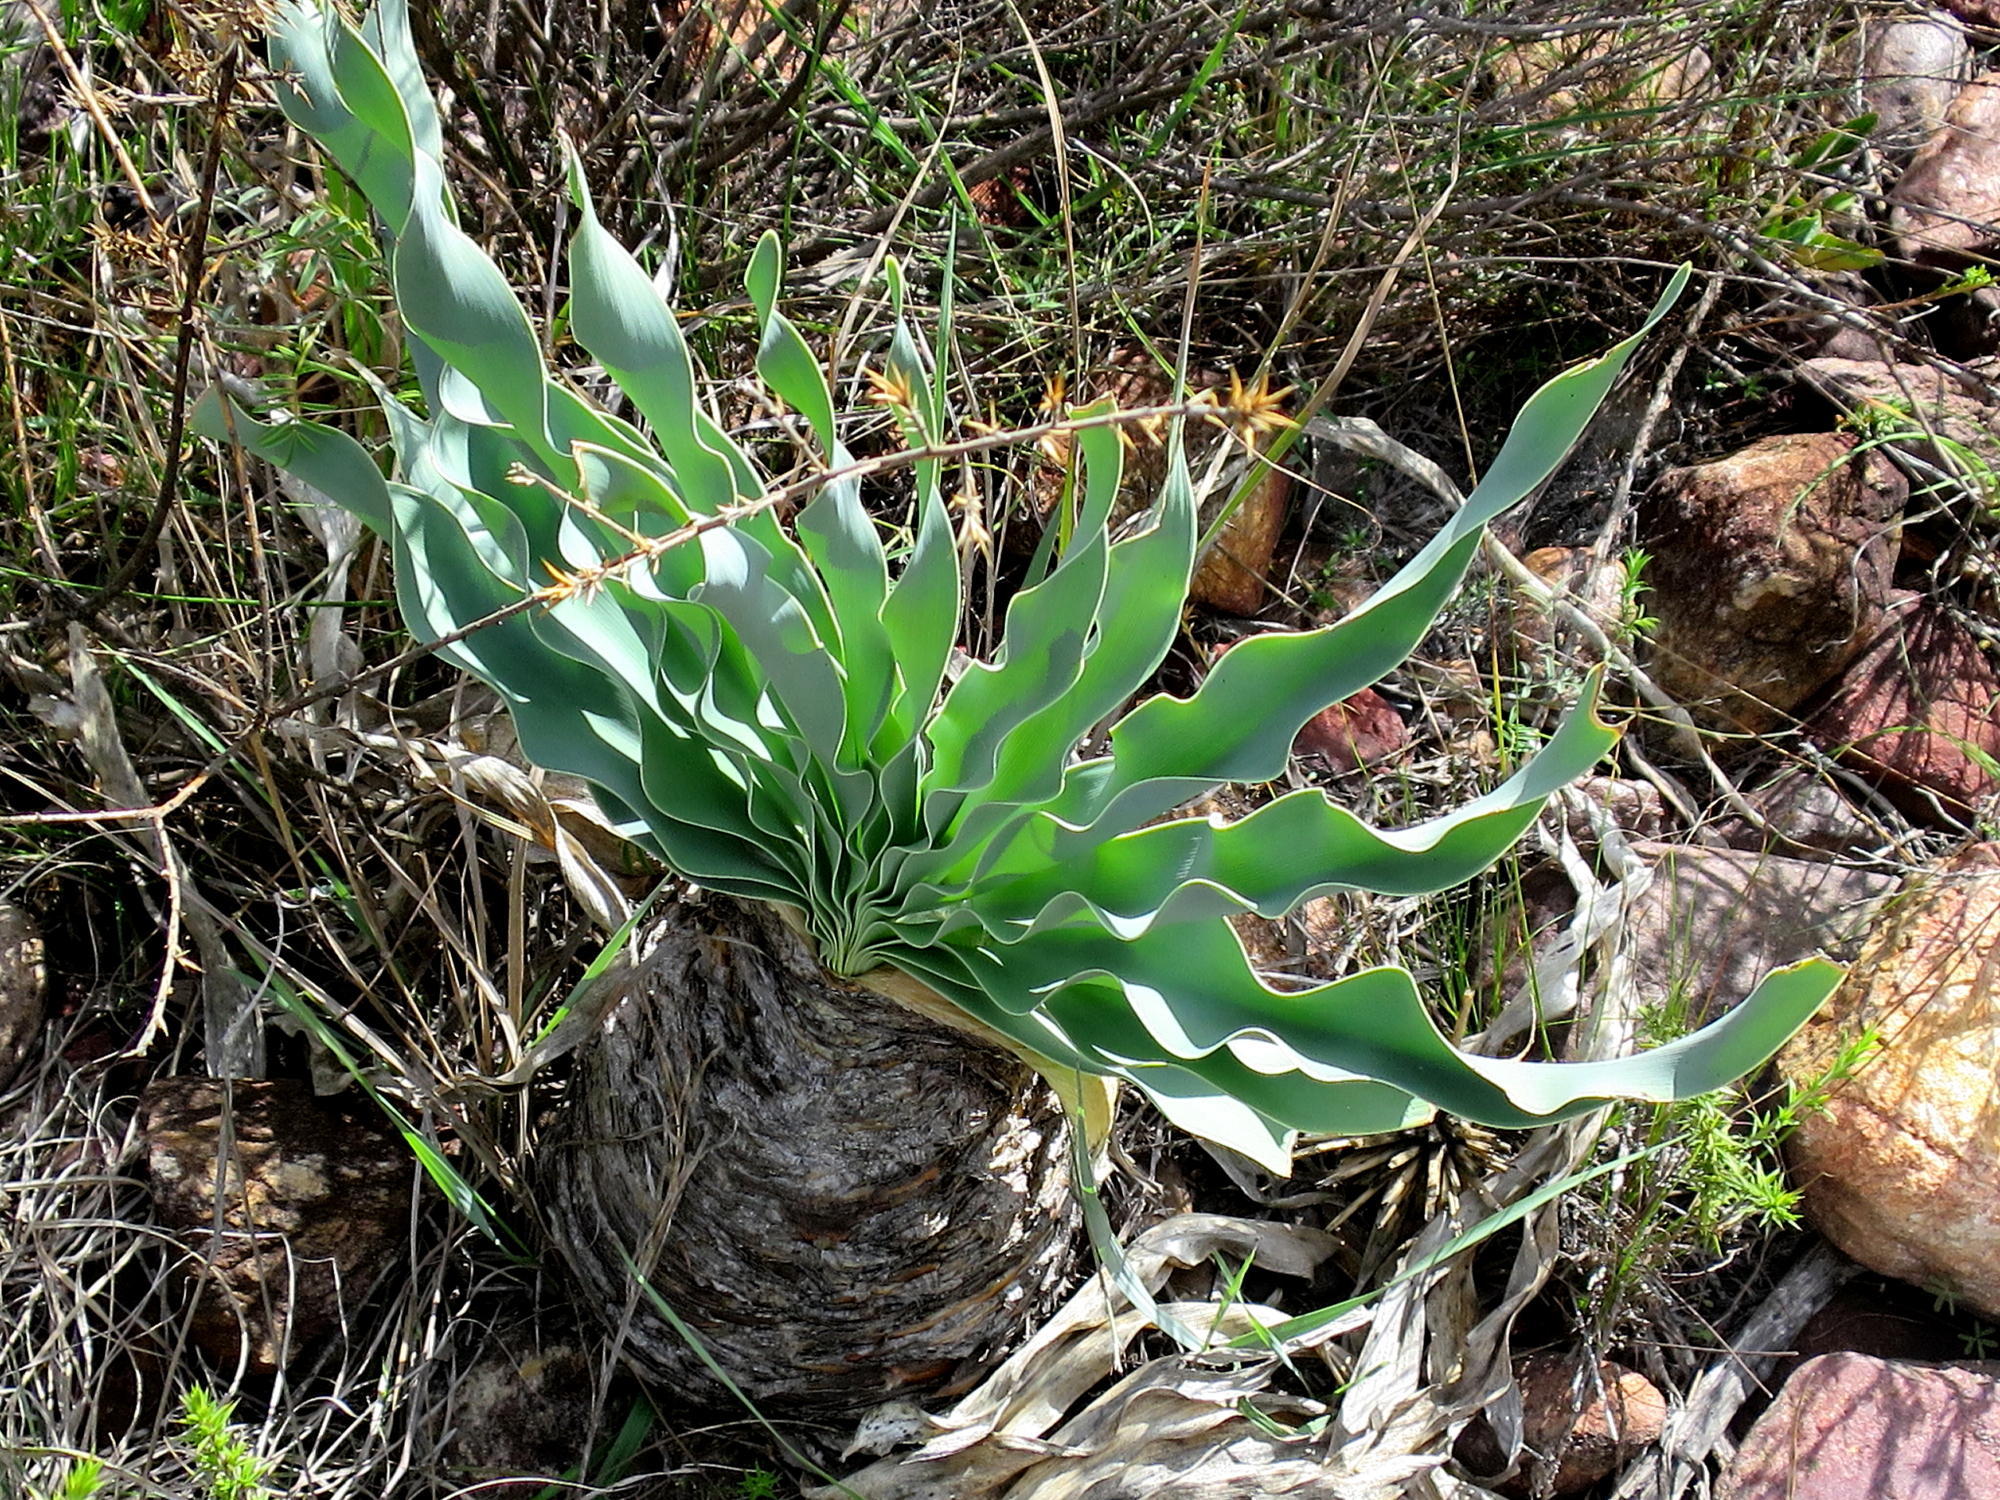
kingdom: Plantae
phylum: Tracheophyta
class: Liliopsida
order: Asparagales
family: Amaryllidaceae
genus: Boophone
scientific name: Boophone disticha
